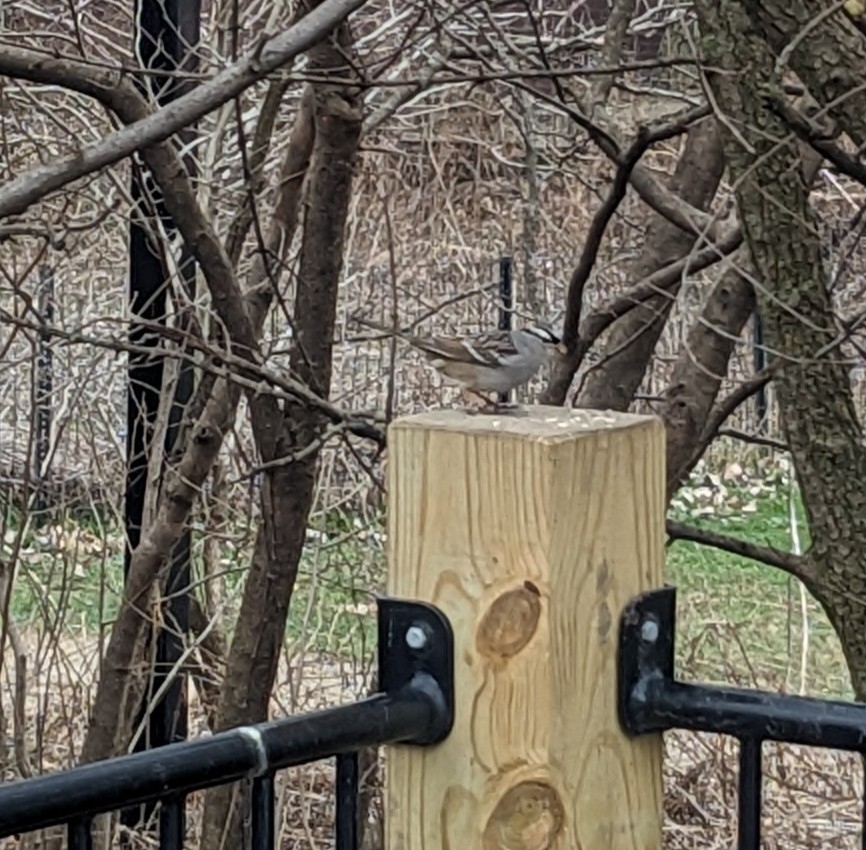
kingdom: Animalia
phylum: Chordata
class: Aves
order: Passeriformes
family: Passerellidae
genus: Zonotrichia
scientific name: Zonotrichia leucophrys
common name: White-crowned sparrow
